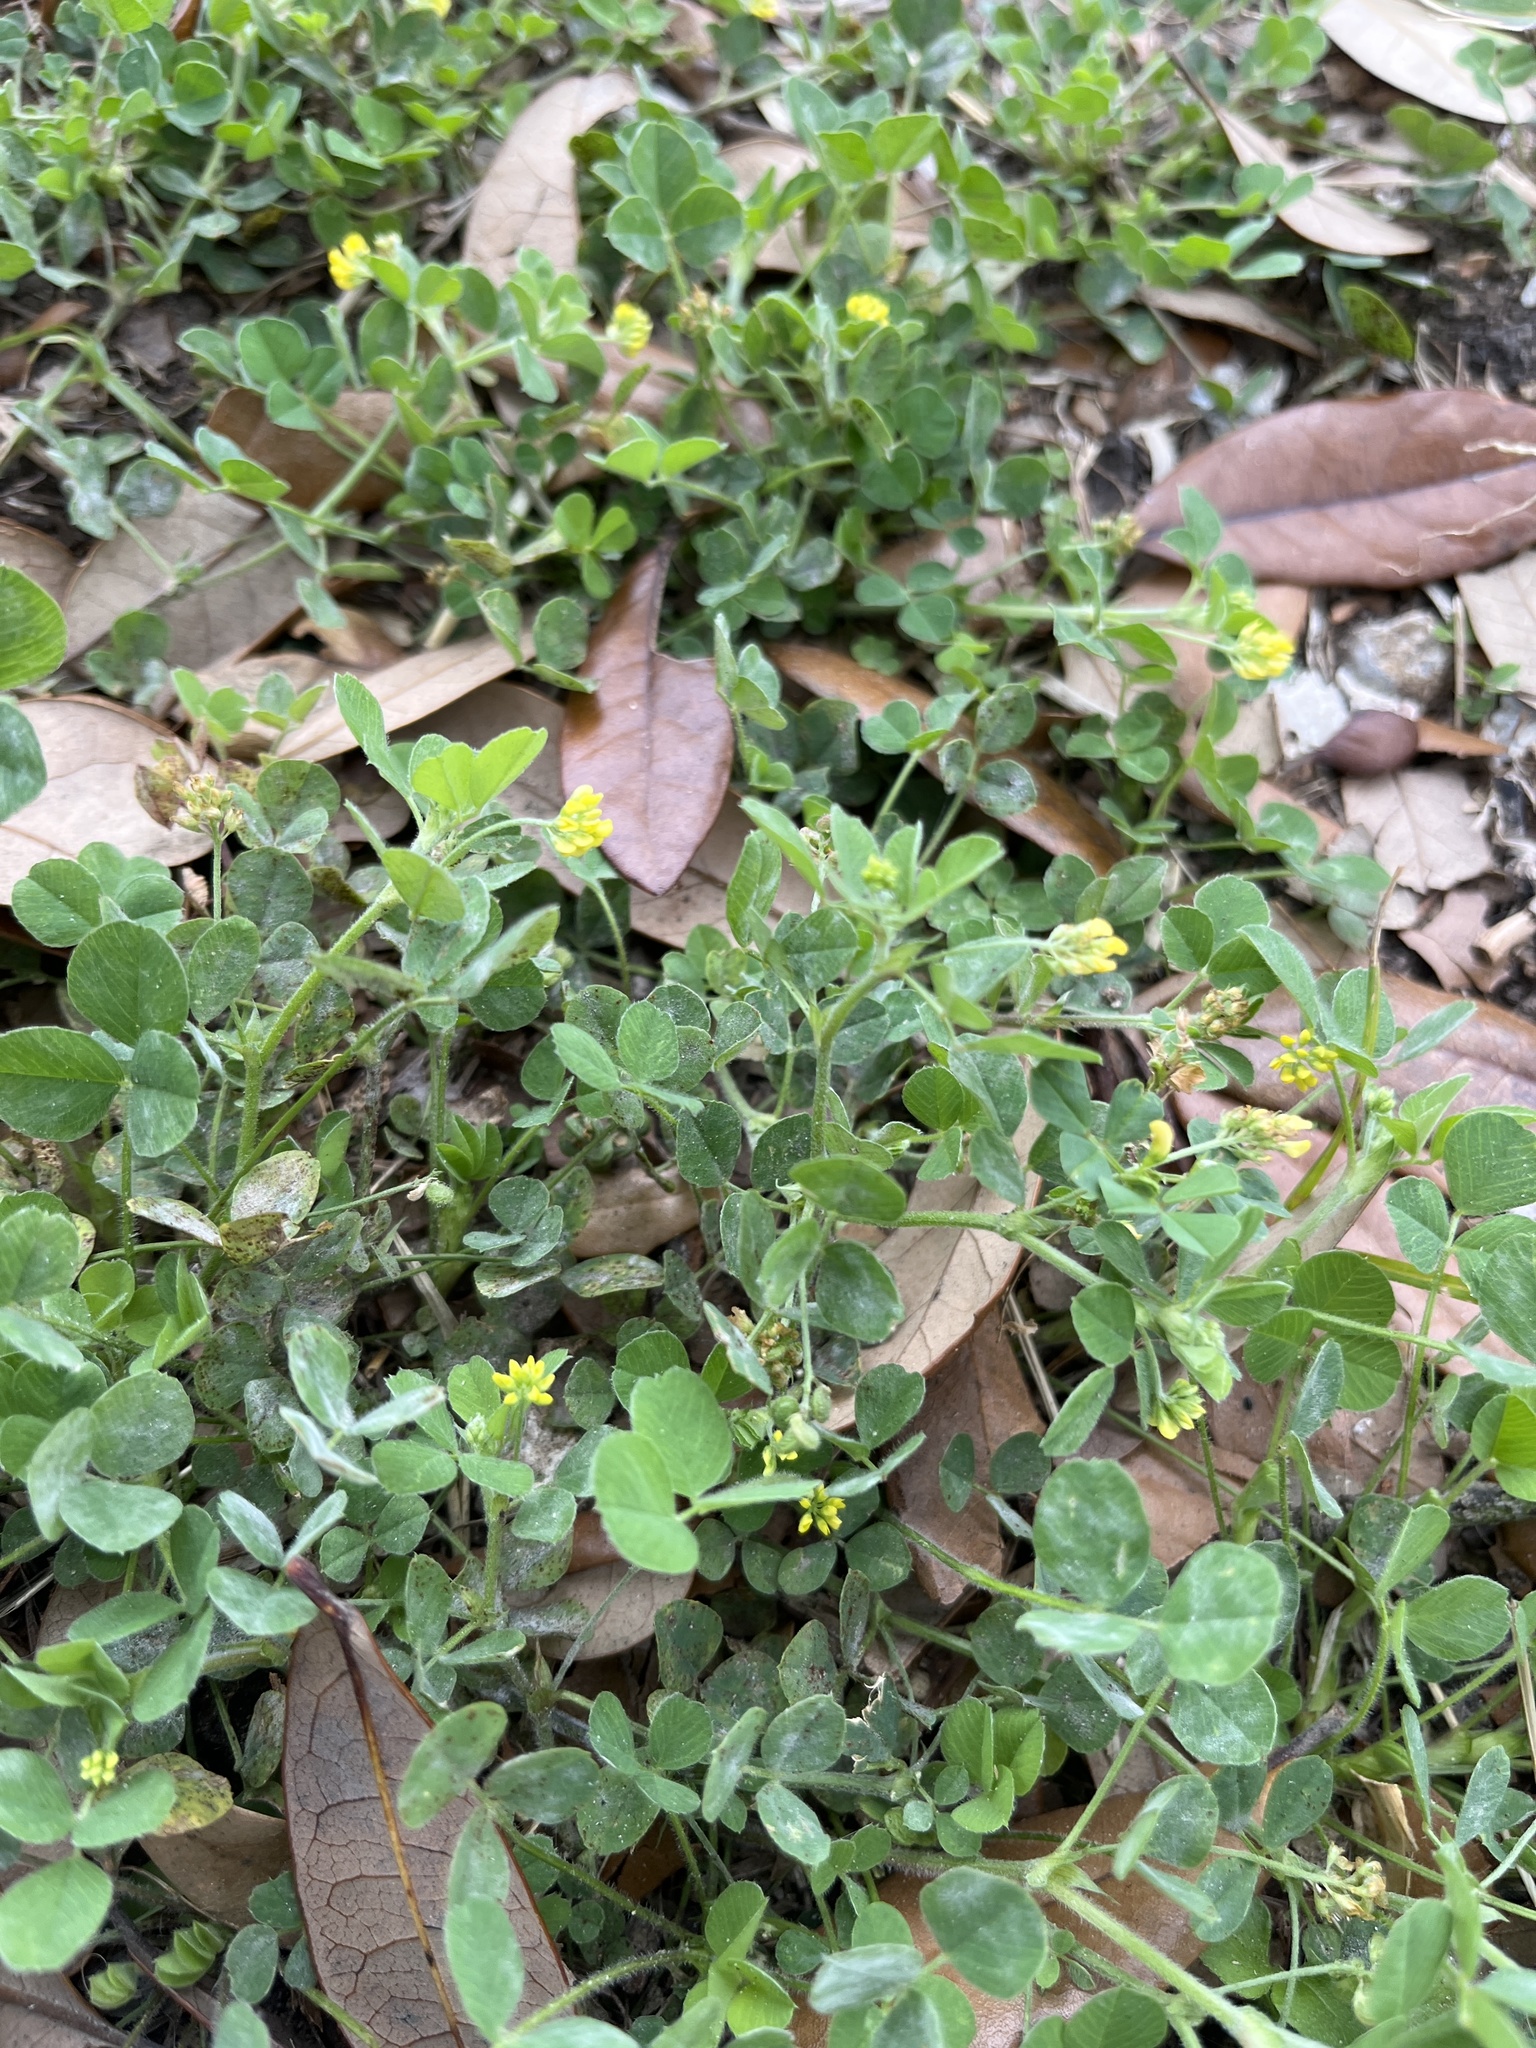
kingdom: Plantae
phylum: Tracheophyta
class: Magnoliopsida
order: Fabales
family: Fabaceae
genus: Medicago
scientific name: Medicago lupulina
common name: Black medick
